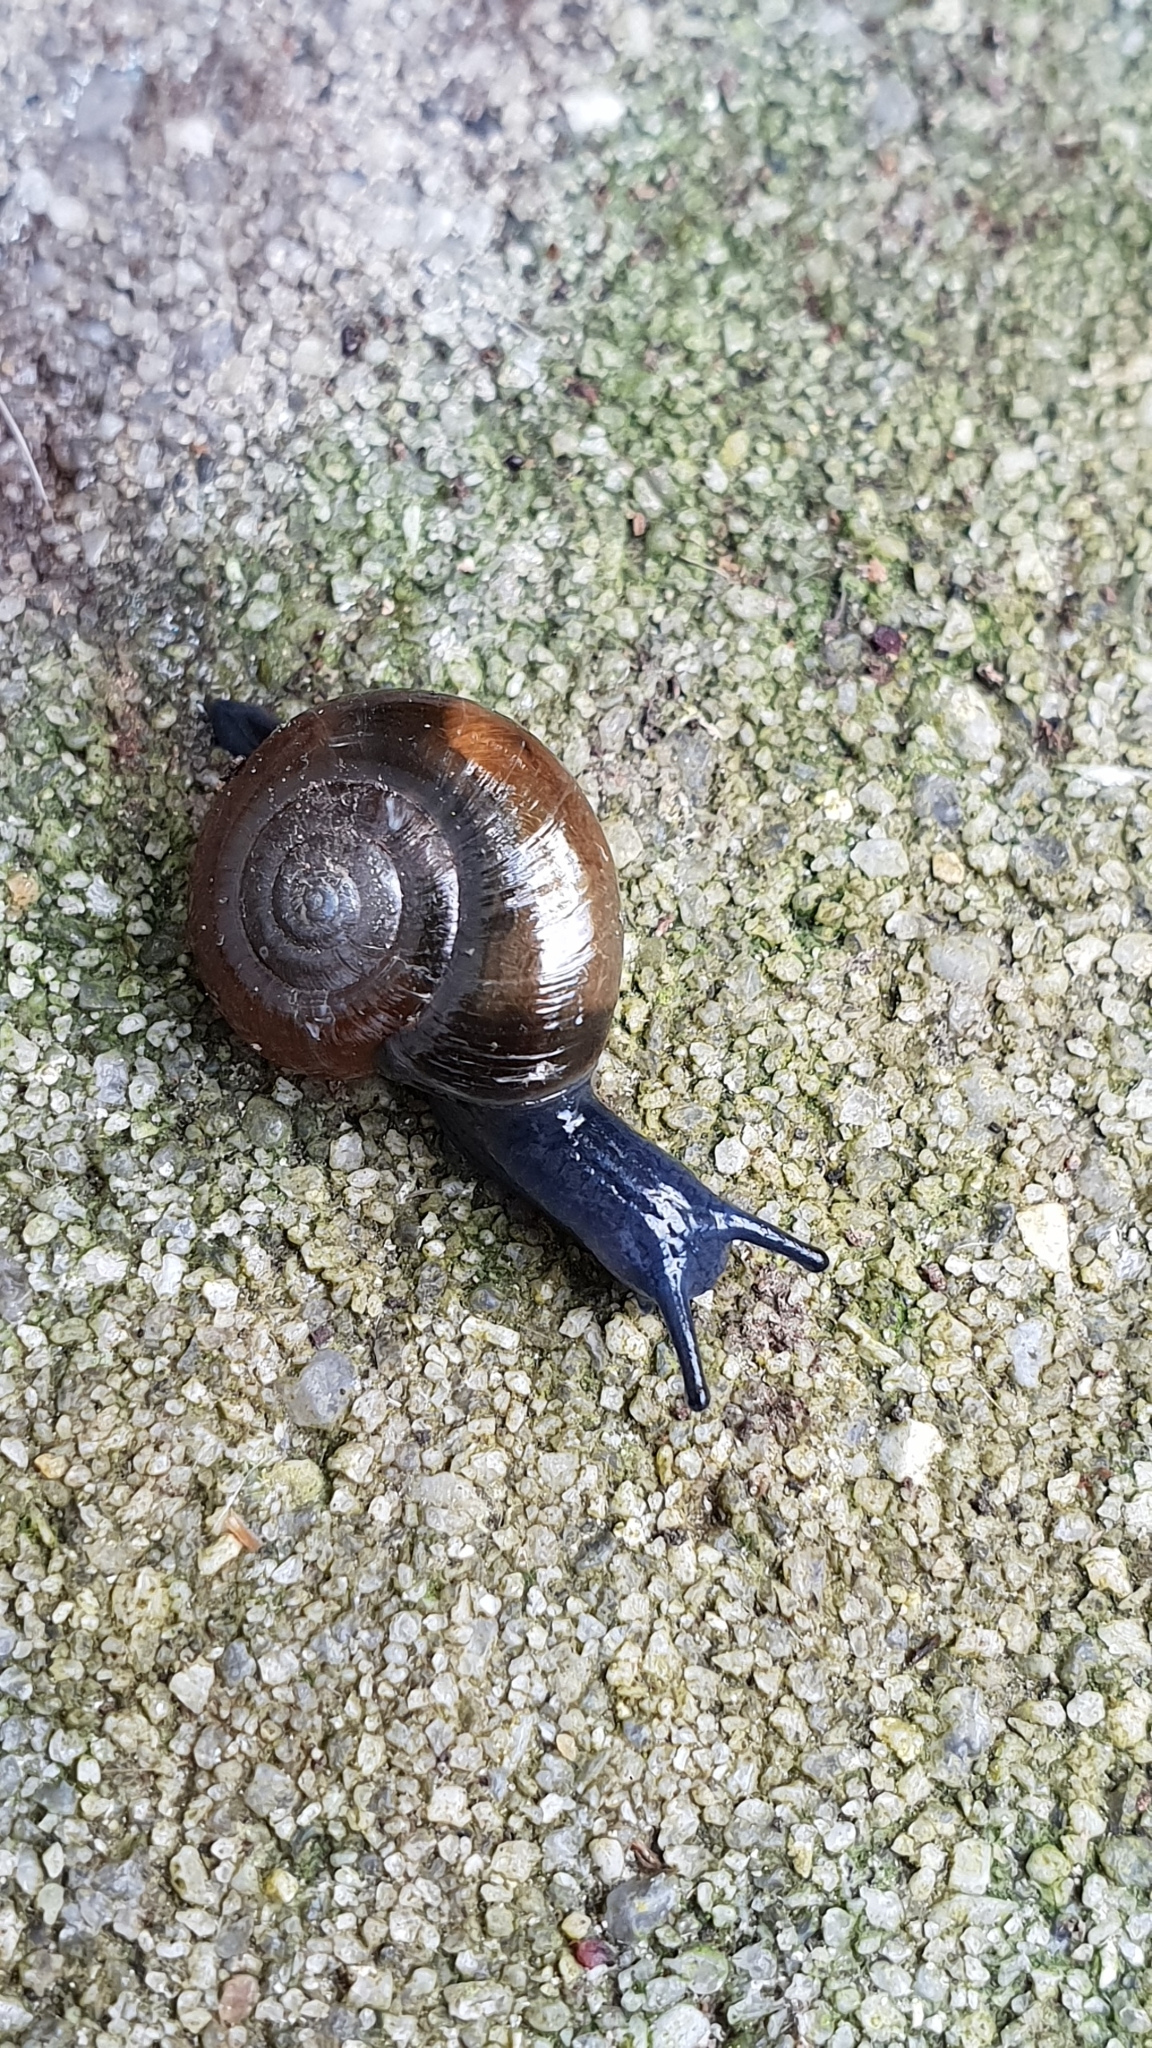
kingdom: Animalia
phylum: Mollusca
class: Gastropoda
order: Stylommatophora
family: Oxychilidae
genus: Oxychilus
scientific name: Oxychilus draparnaudi
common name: Draparnaud's glass snail
